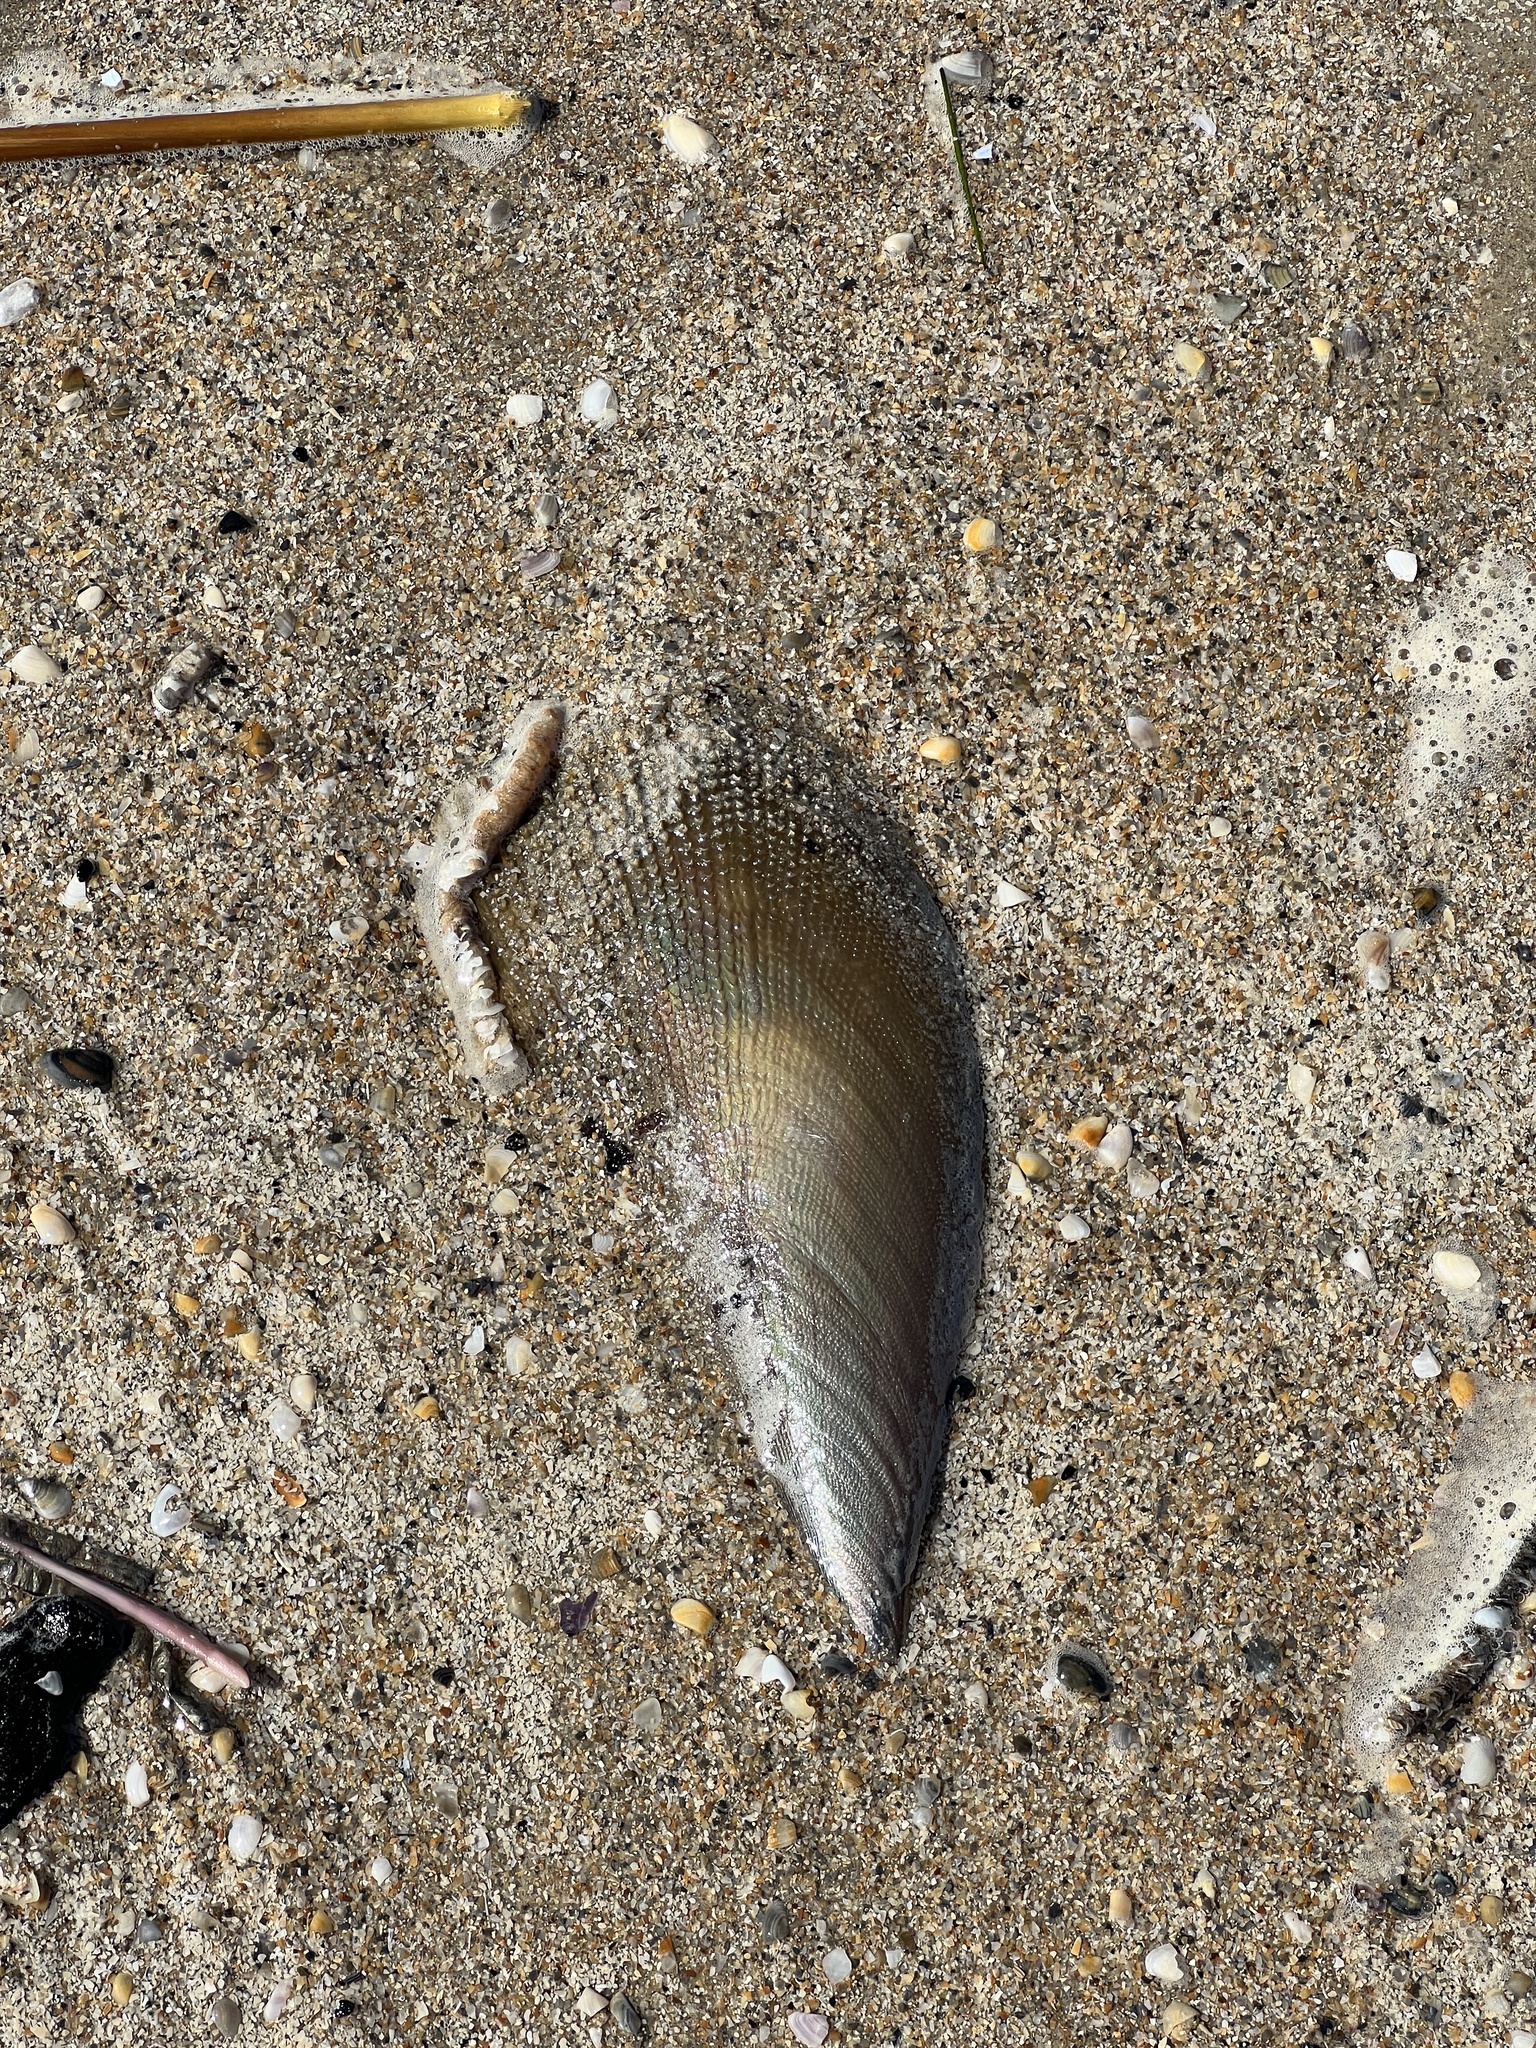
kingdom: Animalia
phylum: Mollusca
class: Bivalvia
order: Ostreida
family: Pinnidae
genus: Atrina
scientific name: Atrina serrata
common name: Saw-toothed penshell
